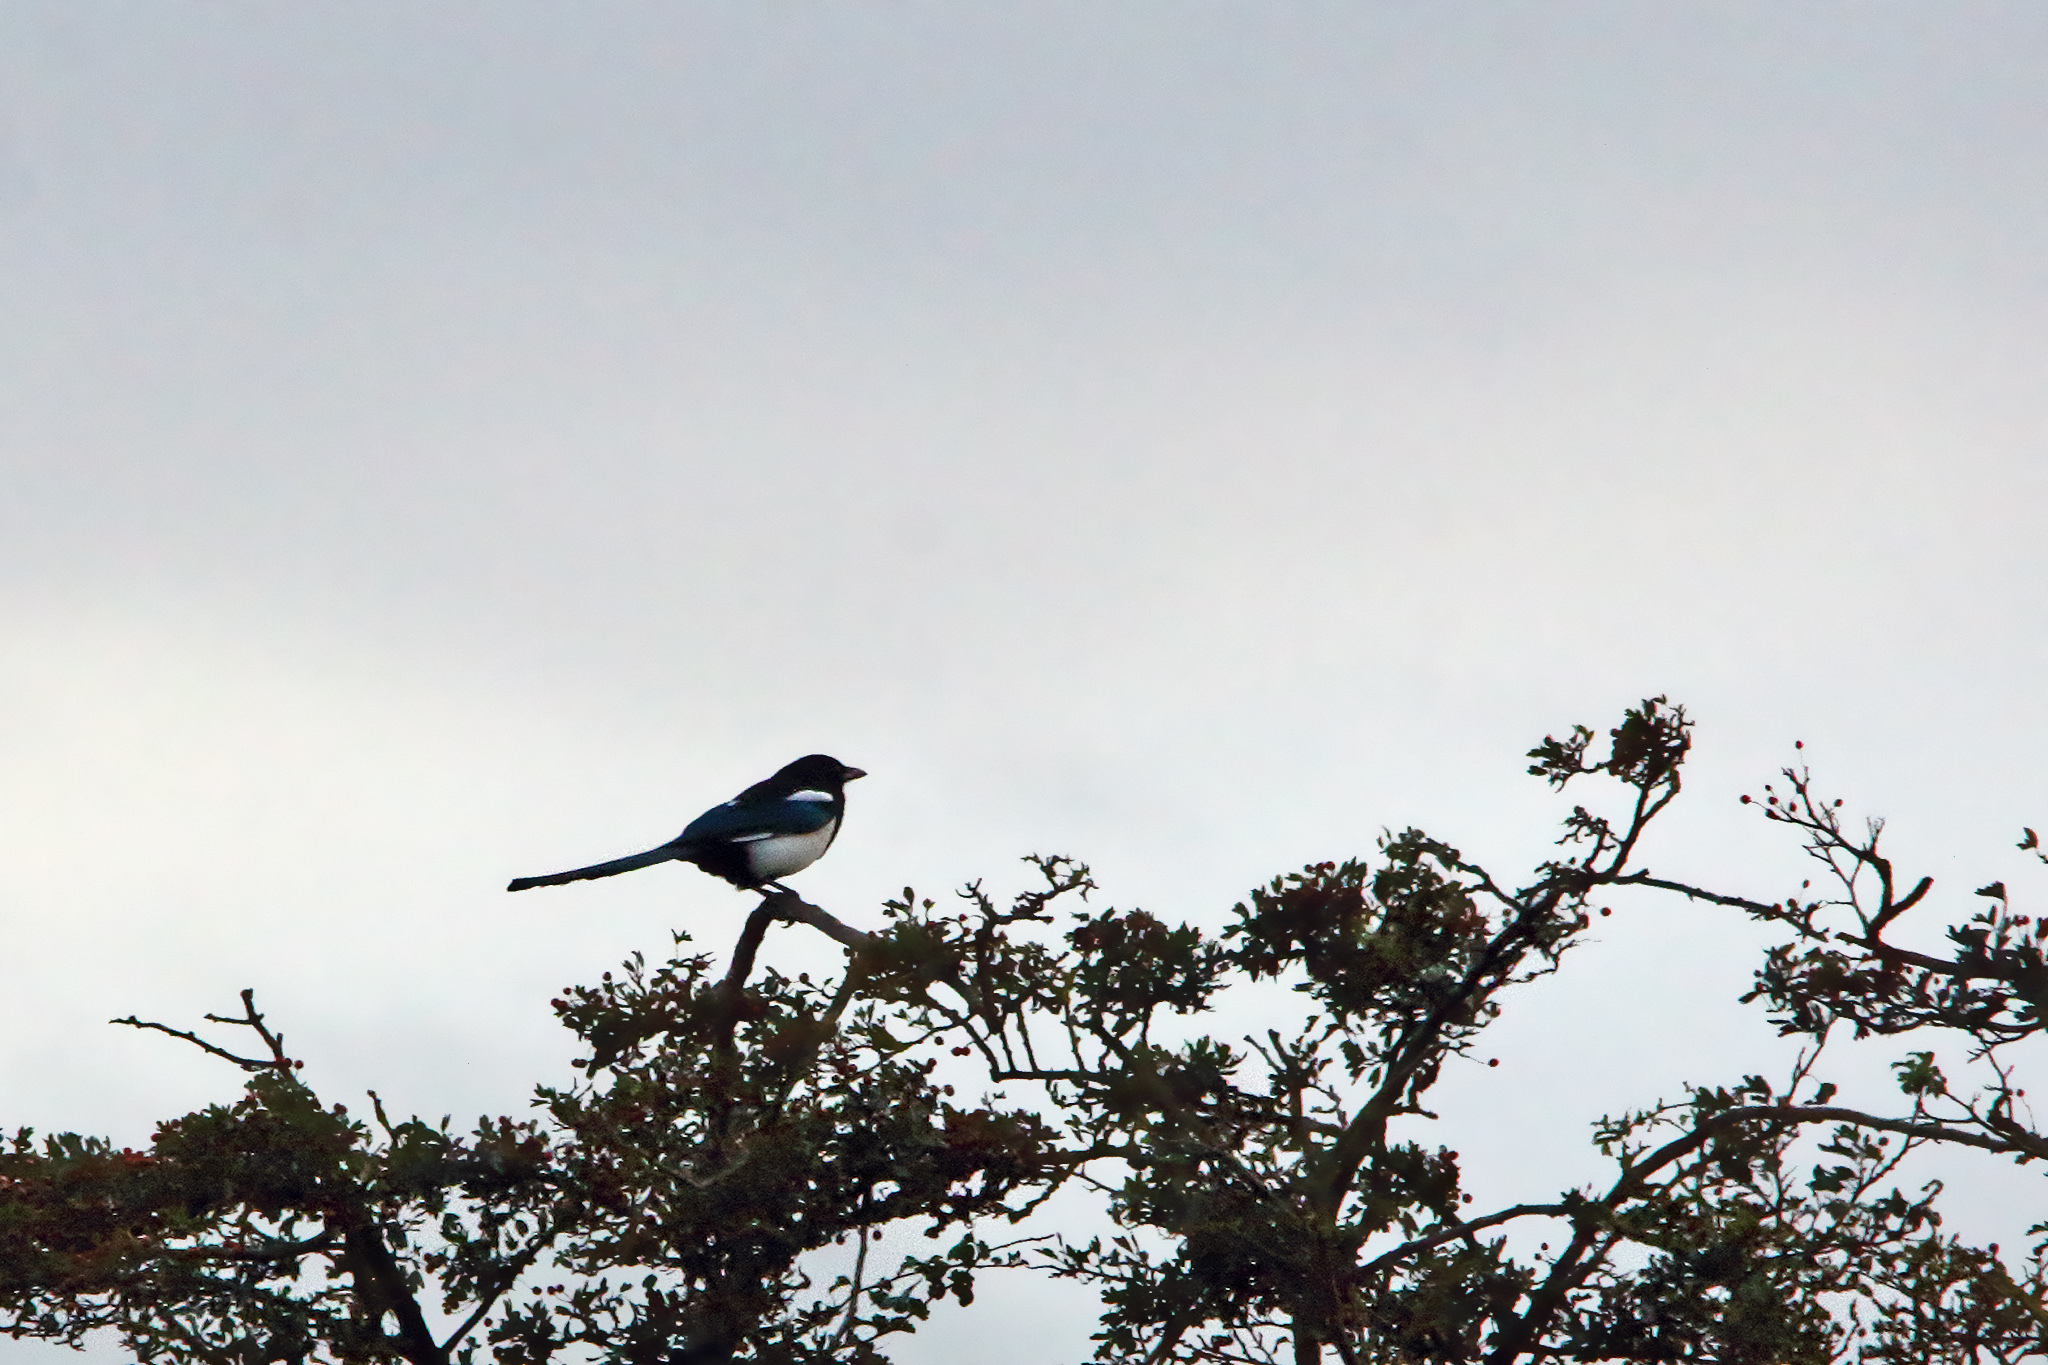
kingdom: Animalia
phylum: Chordata
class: Aves
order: Passeriformes
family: Corvidae
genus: Pica
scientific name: Pica pica
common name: Eurasian magpie
